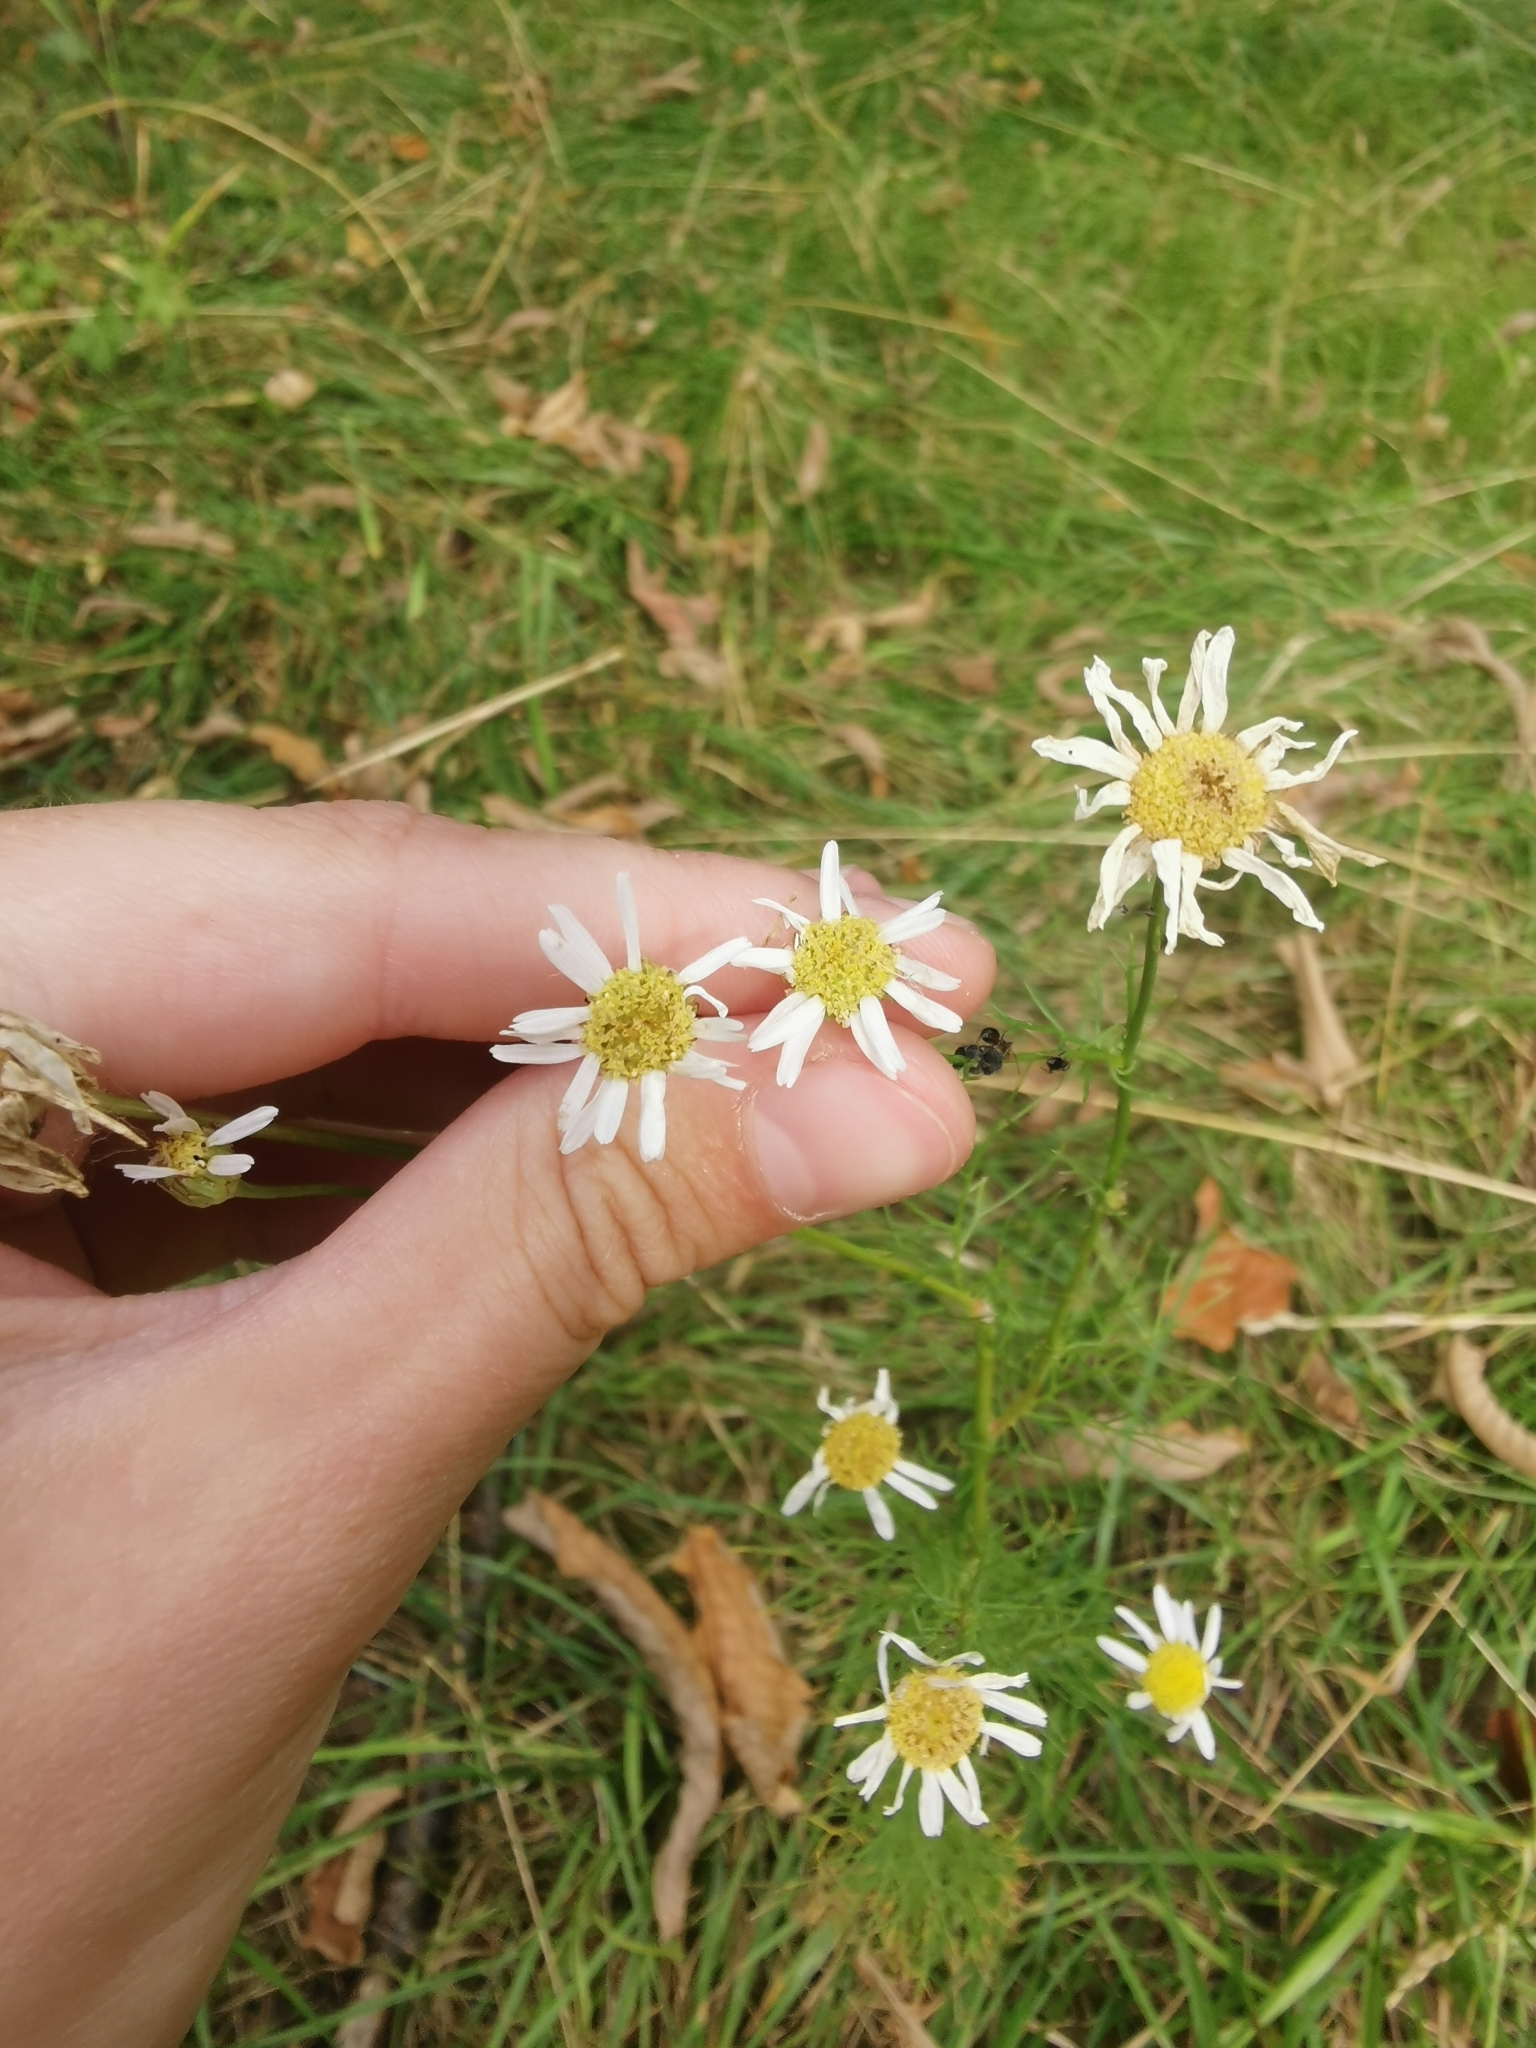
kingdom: Plantae
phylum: Tracheophyta
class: Magnoliopsida
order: Asterales
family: Asteraceae
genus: Tripleurospermum
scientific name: Tripleurospermum inodorum
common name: Scentless mayweed
